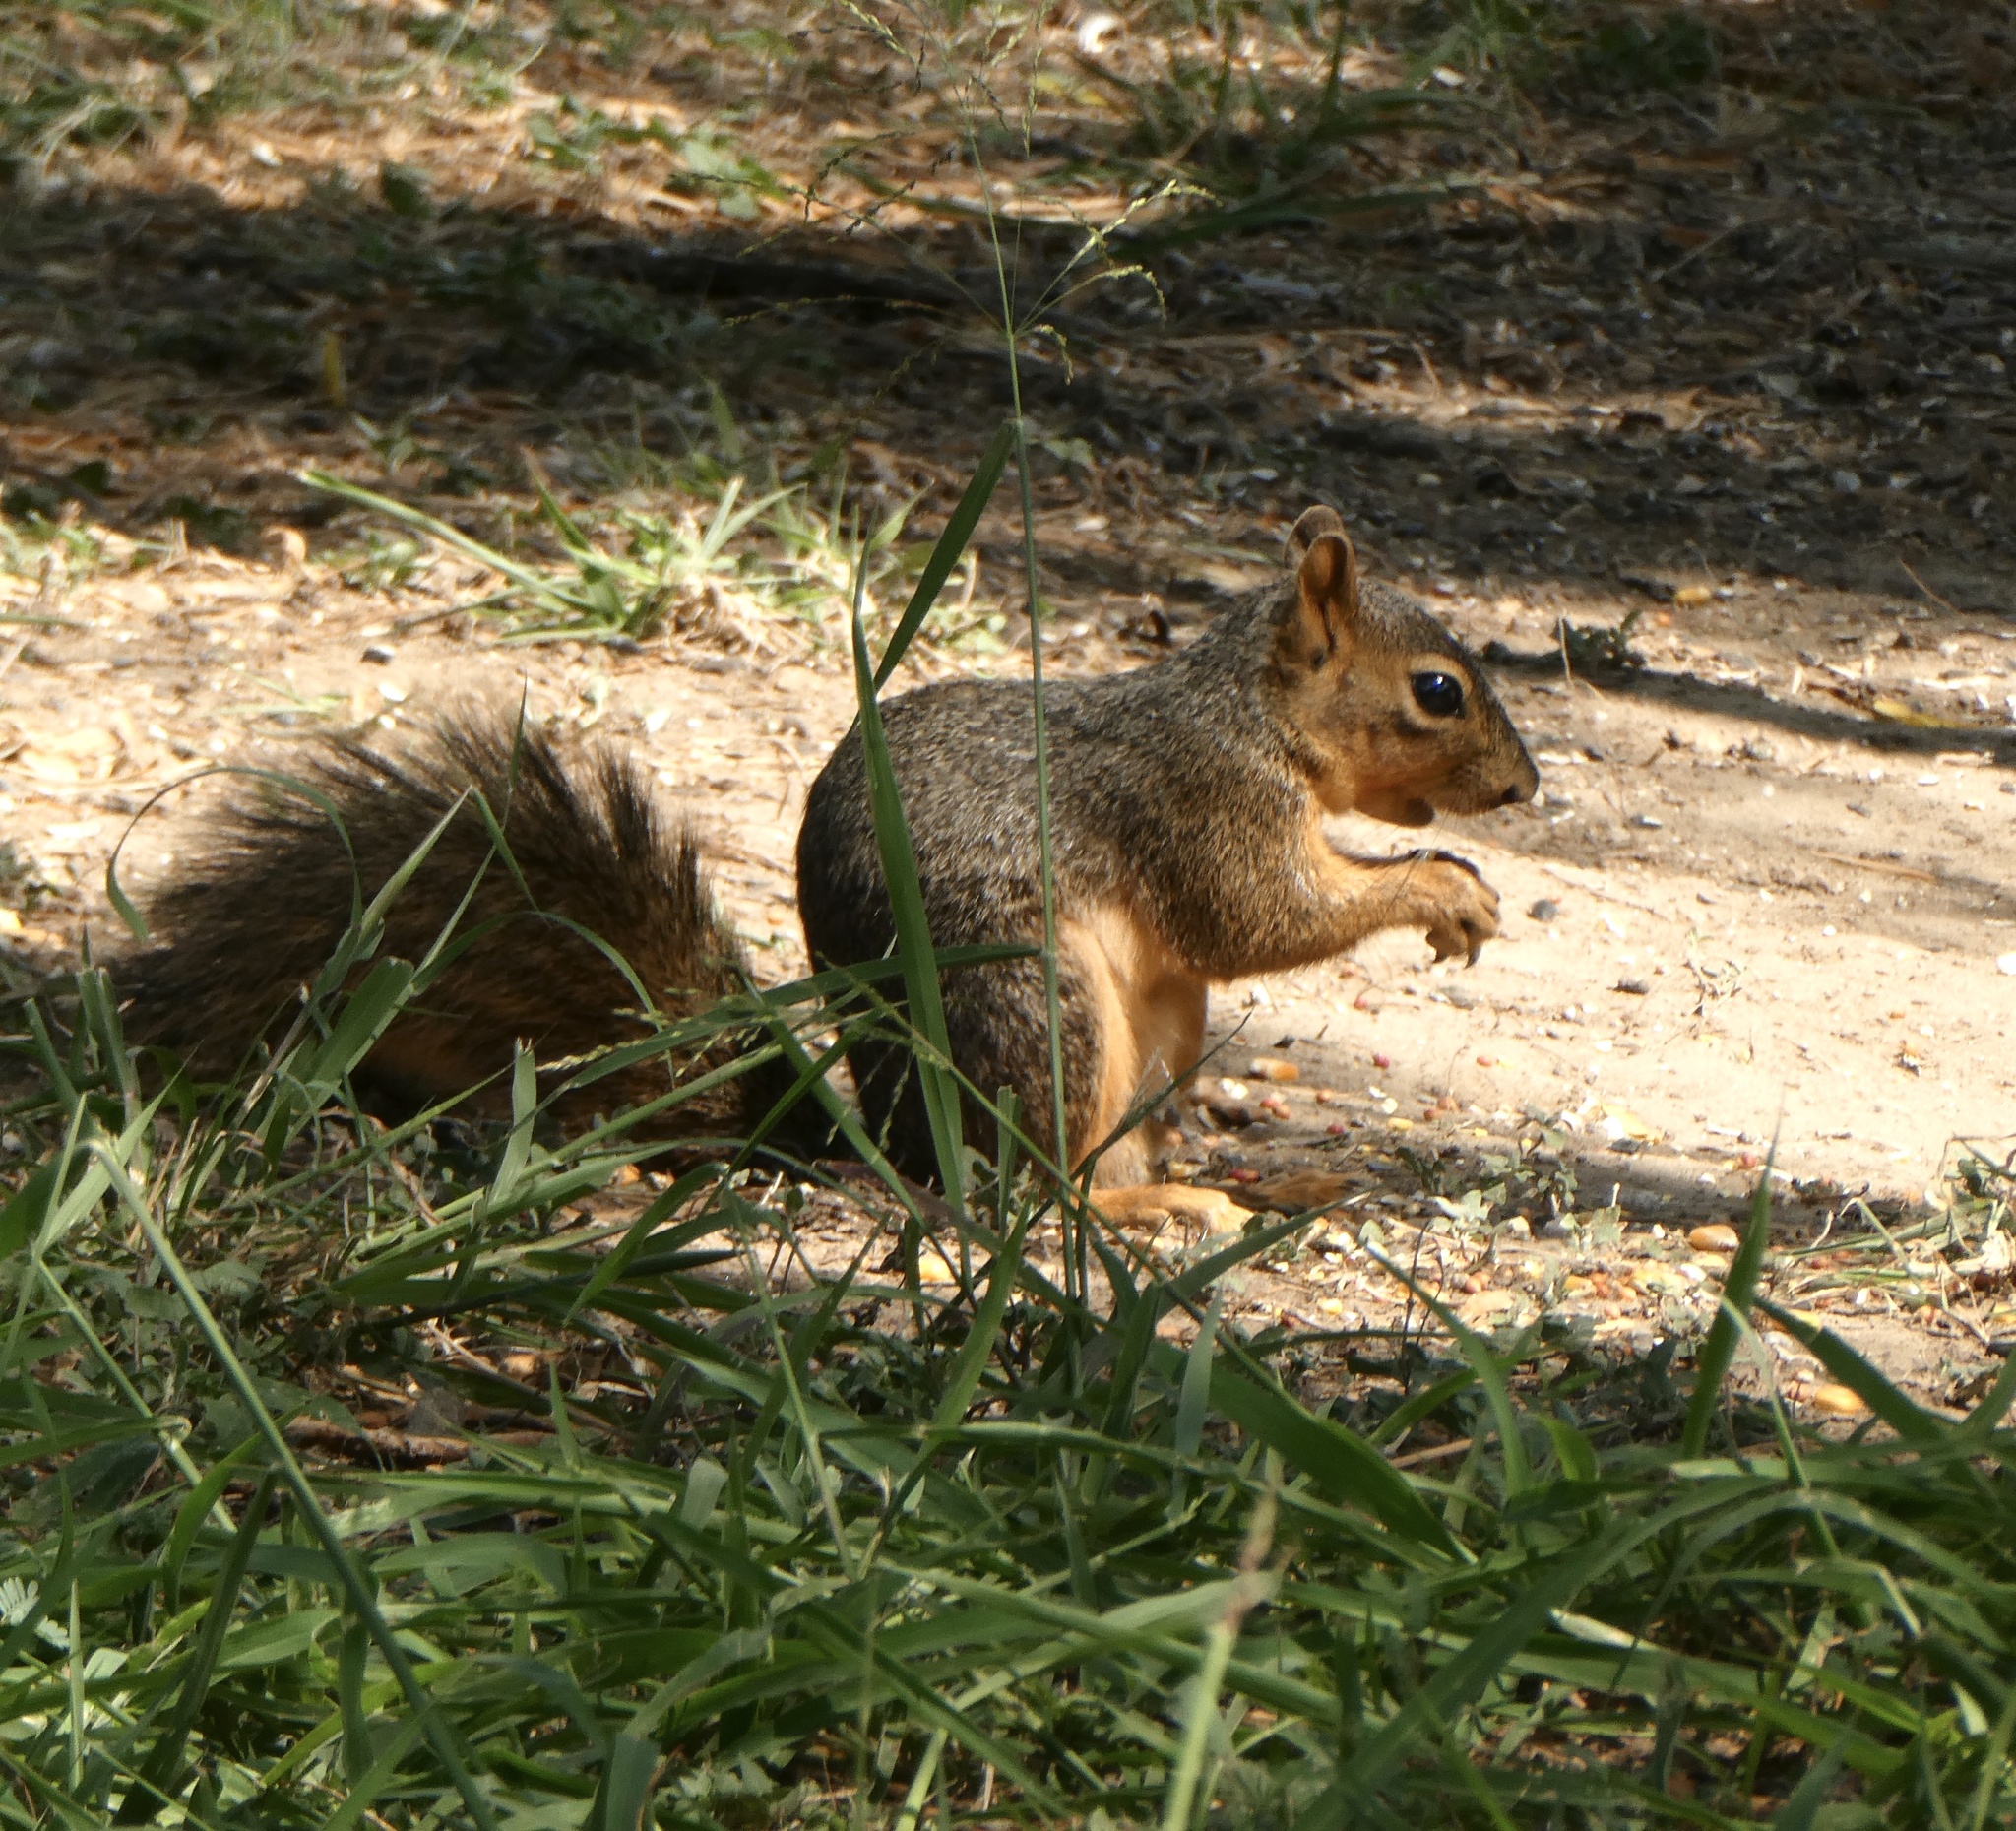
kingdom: Animalia
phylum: Chordata
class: Mammalia
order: Rodentia
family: Sciuridae
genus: Sciurus
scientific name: Sciurus niger
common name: Fox squirrel
